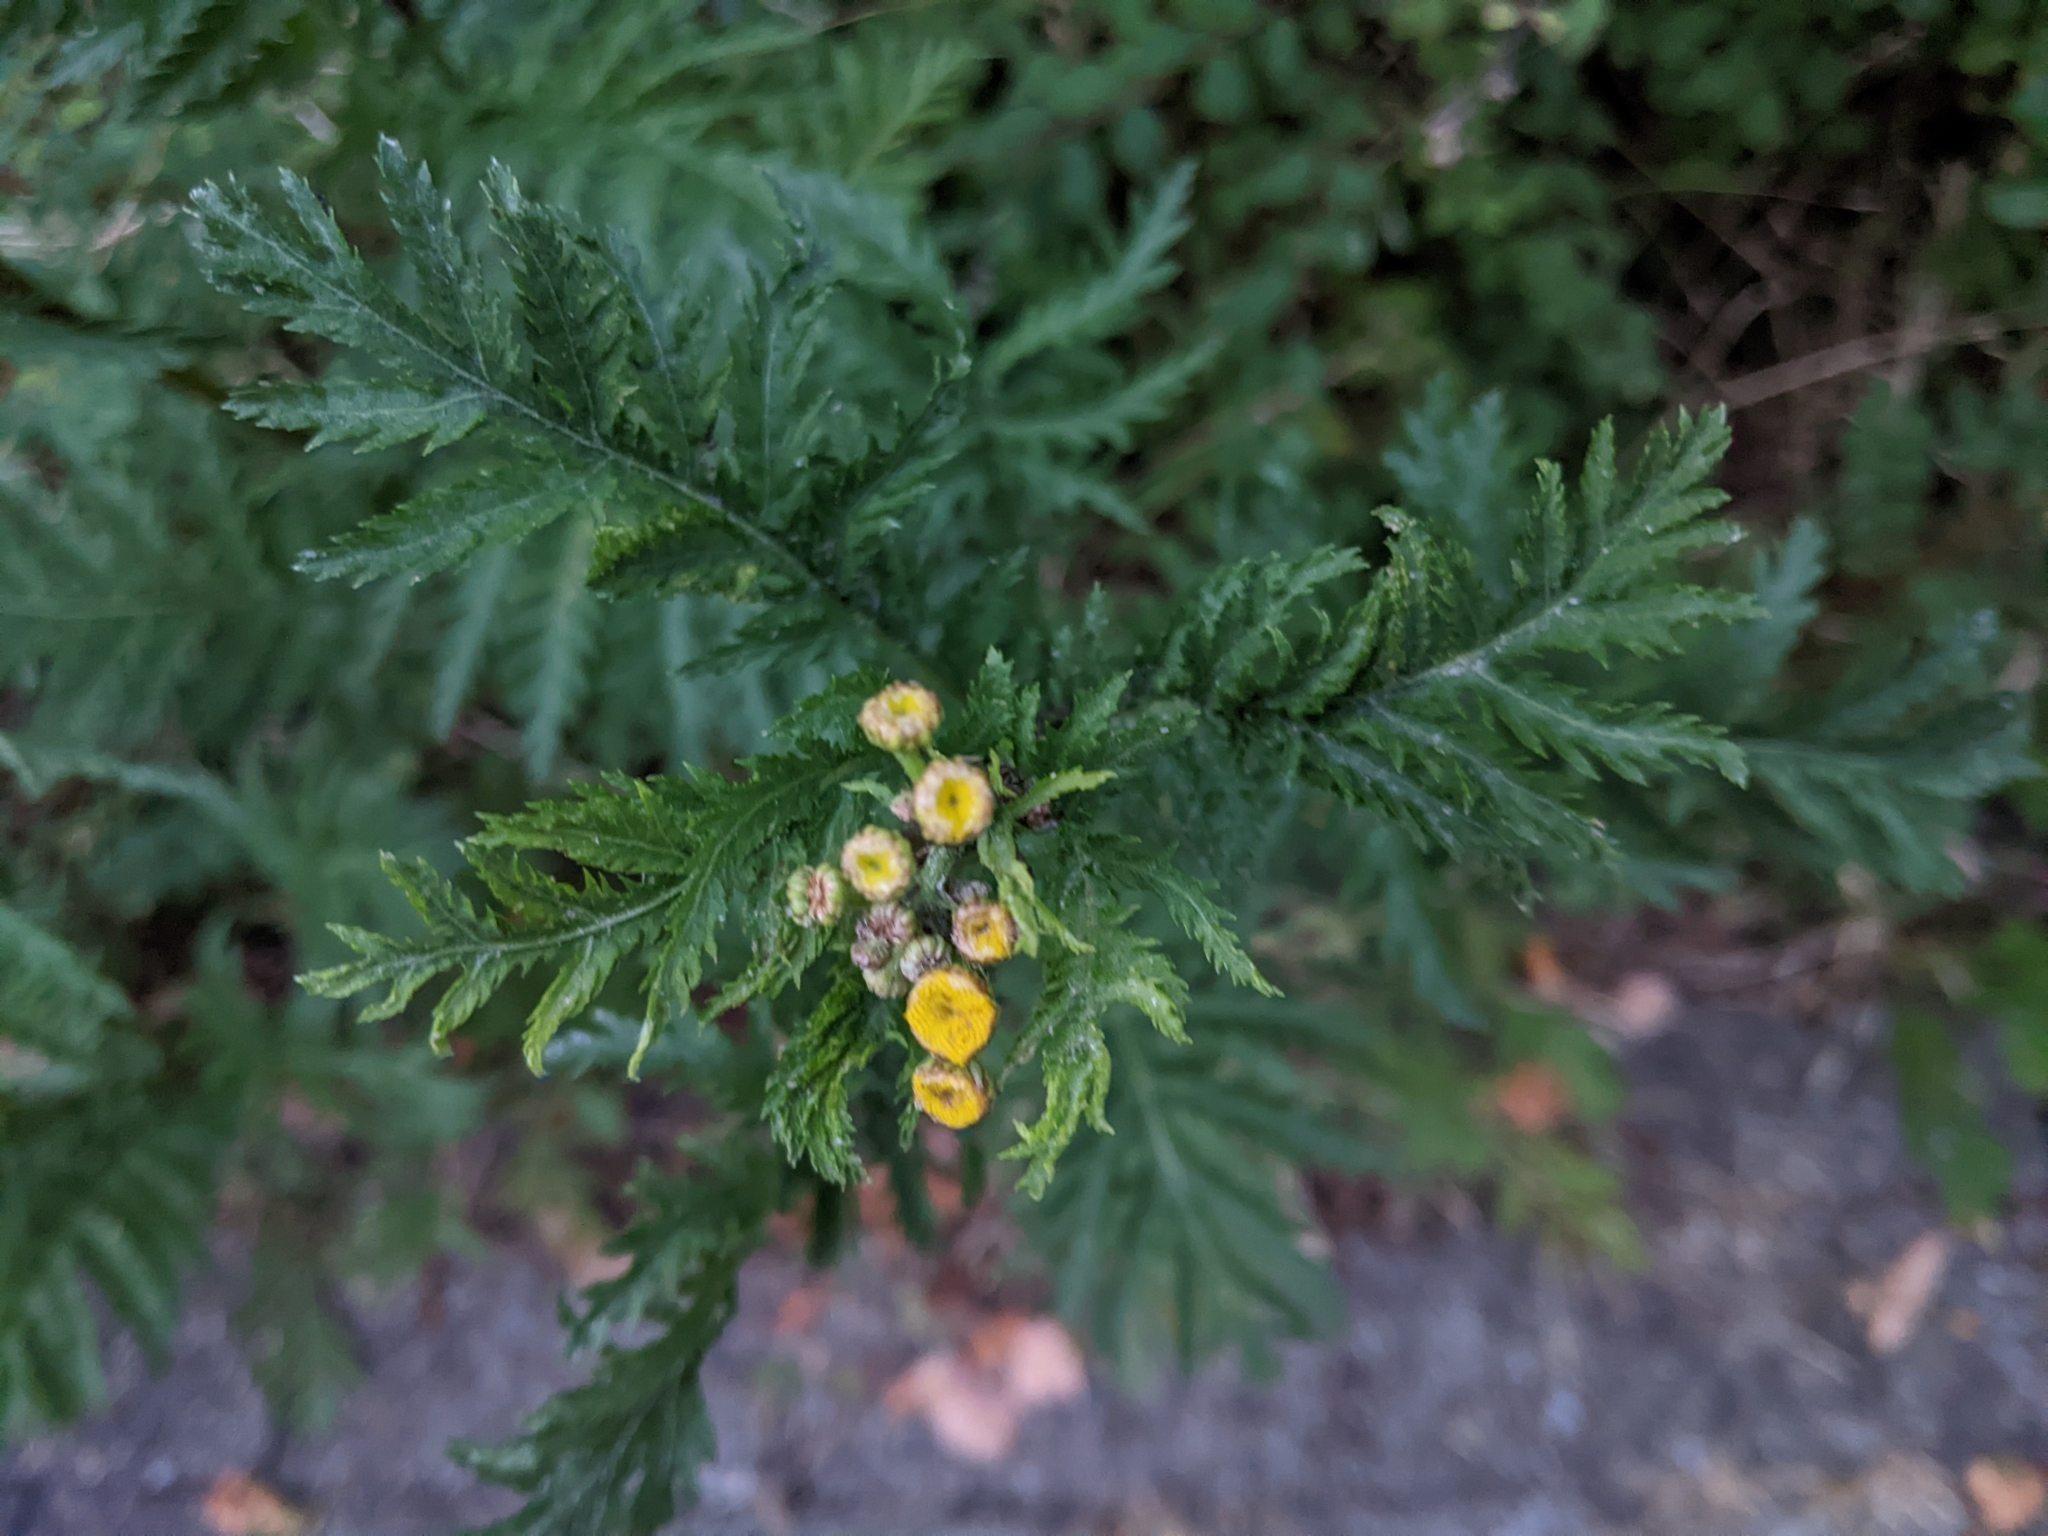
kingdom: Plantae
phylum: Tracheophyta
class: Magnoliopsida
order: Asterales
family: Asteraceae
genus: Tanacetum
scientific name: Tanacetum vulgare
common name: Common tansy
